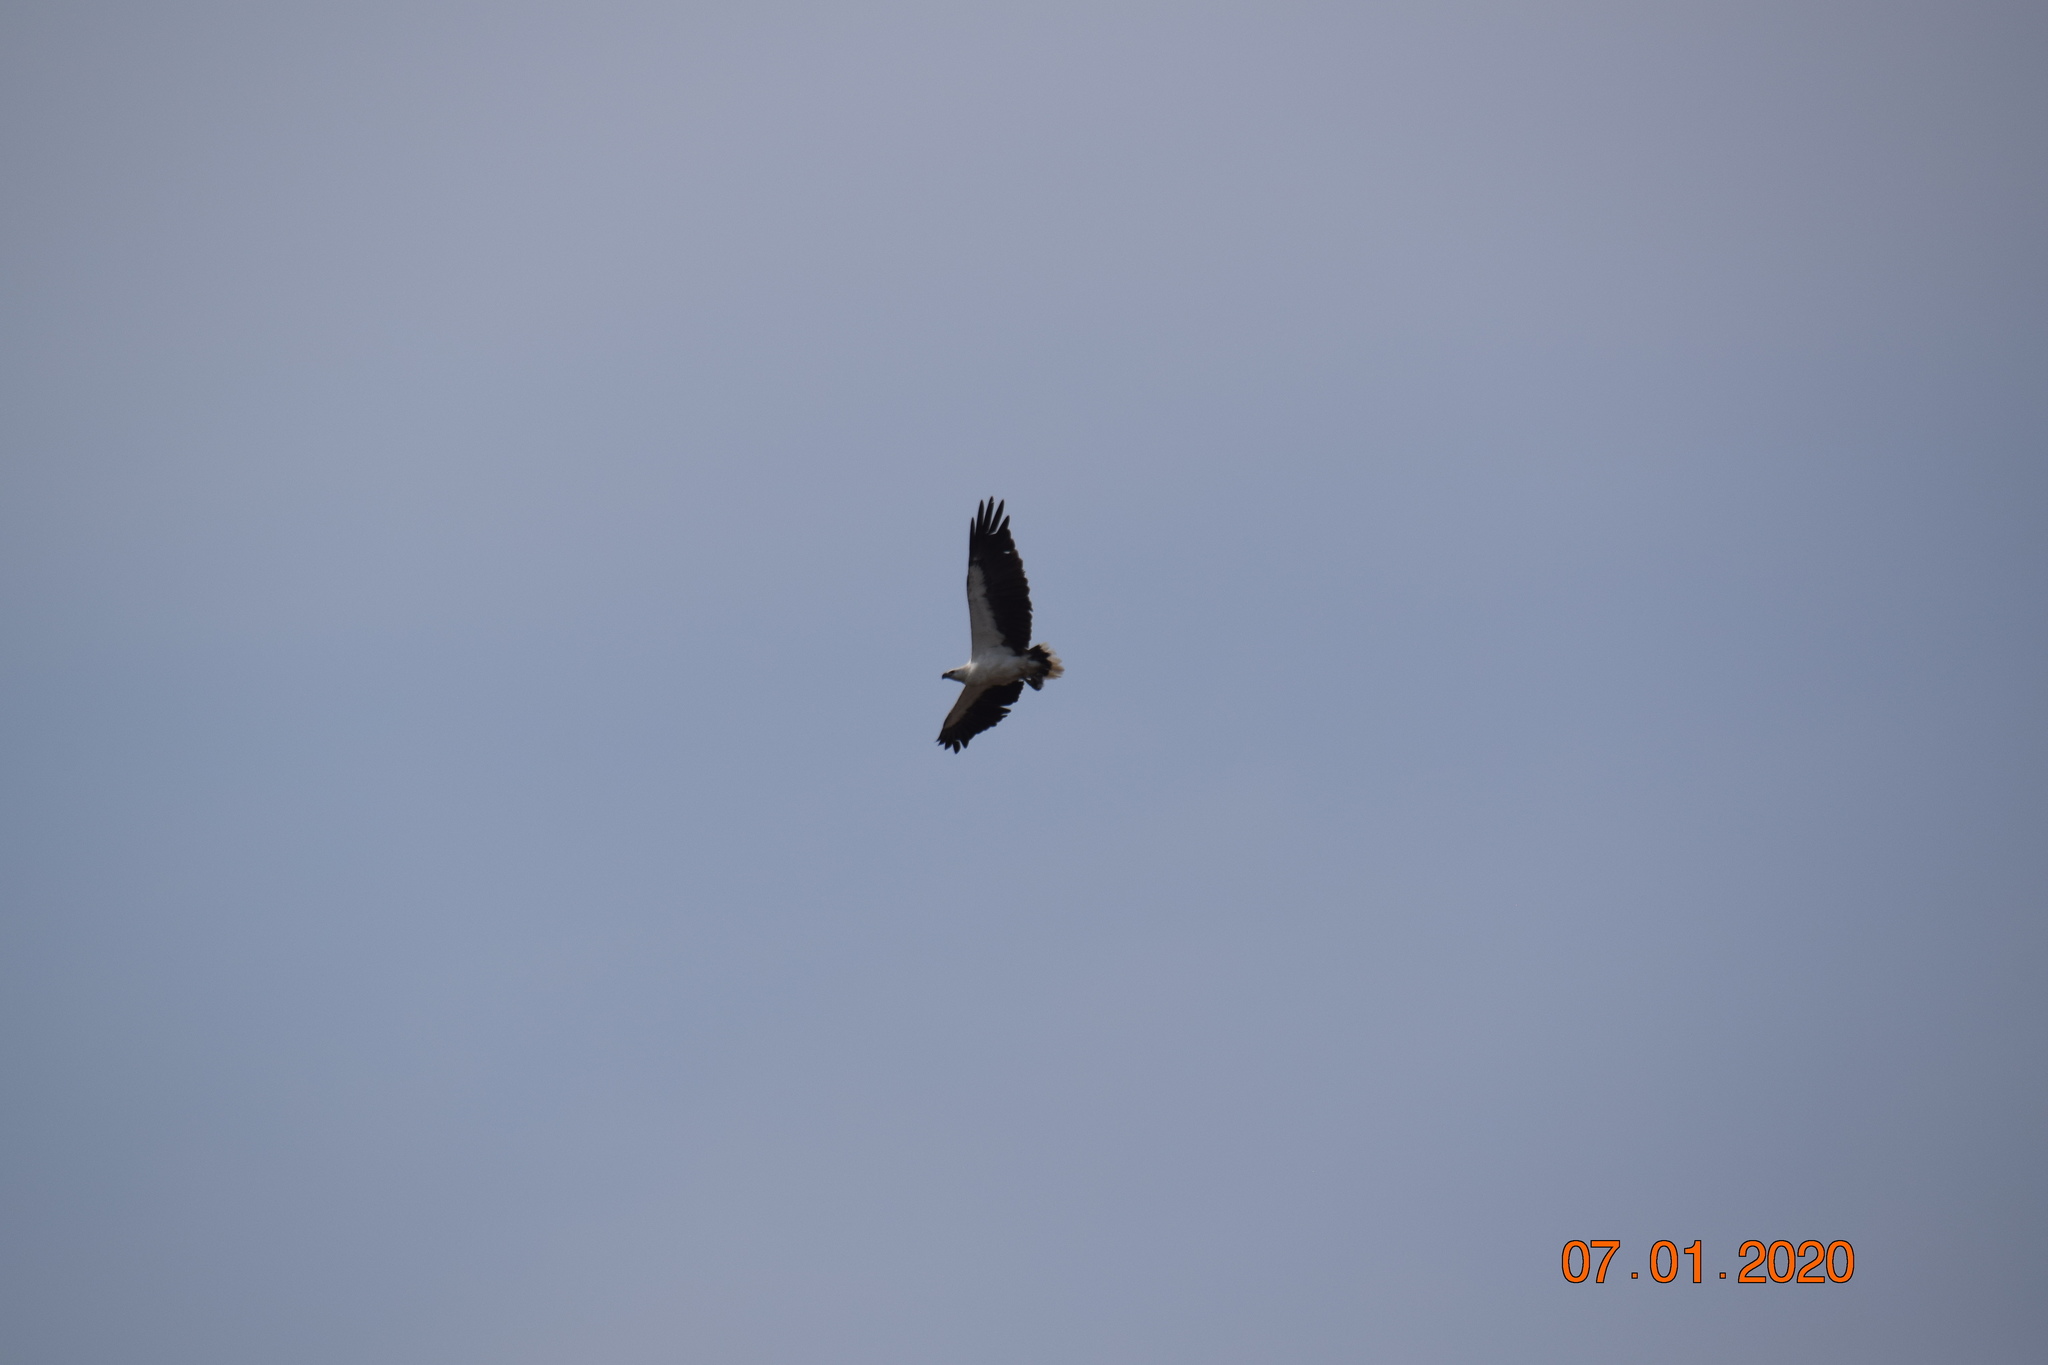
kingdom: Animalia
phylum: Chordata
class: Aves
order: Accipitriformes
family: Accipitridae
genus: Haliaeetus
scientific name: Haliaeetus leucogaster
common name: White-bellied sea eagle
